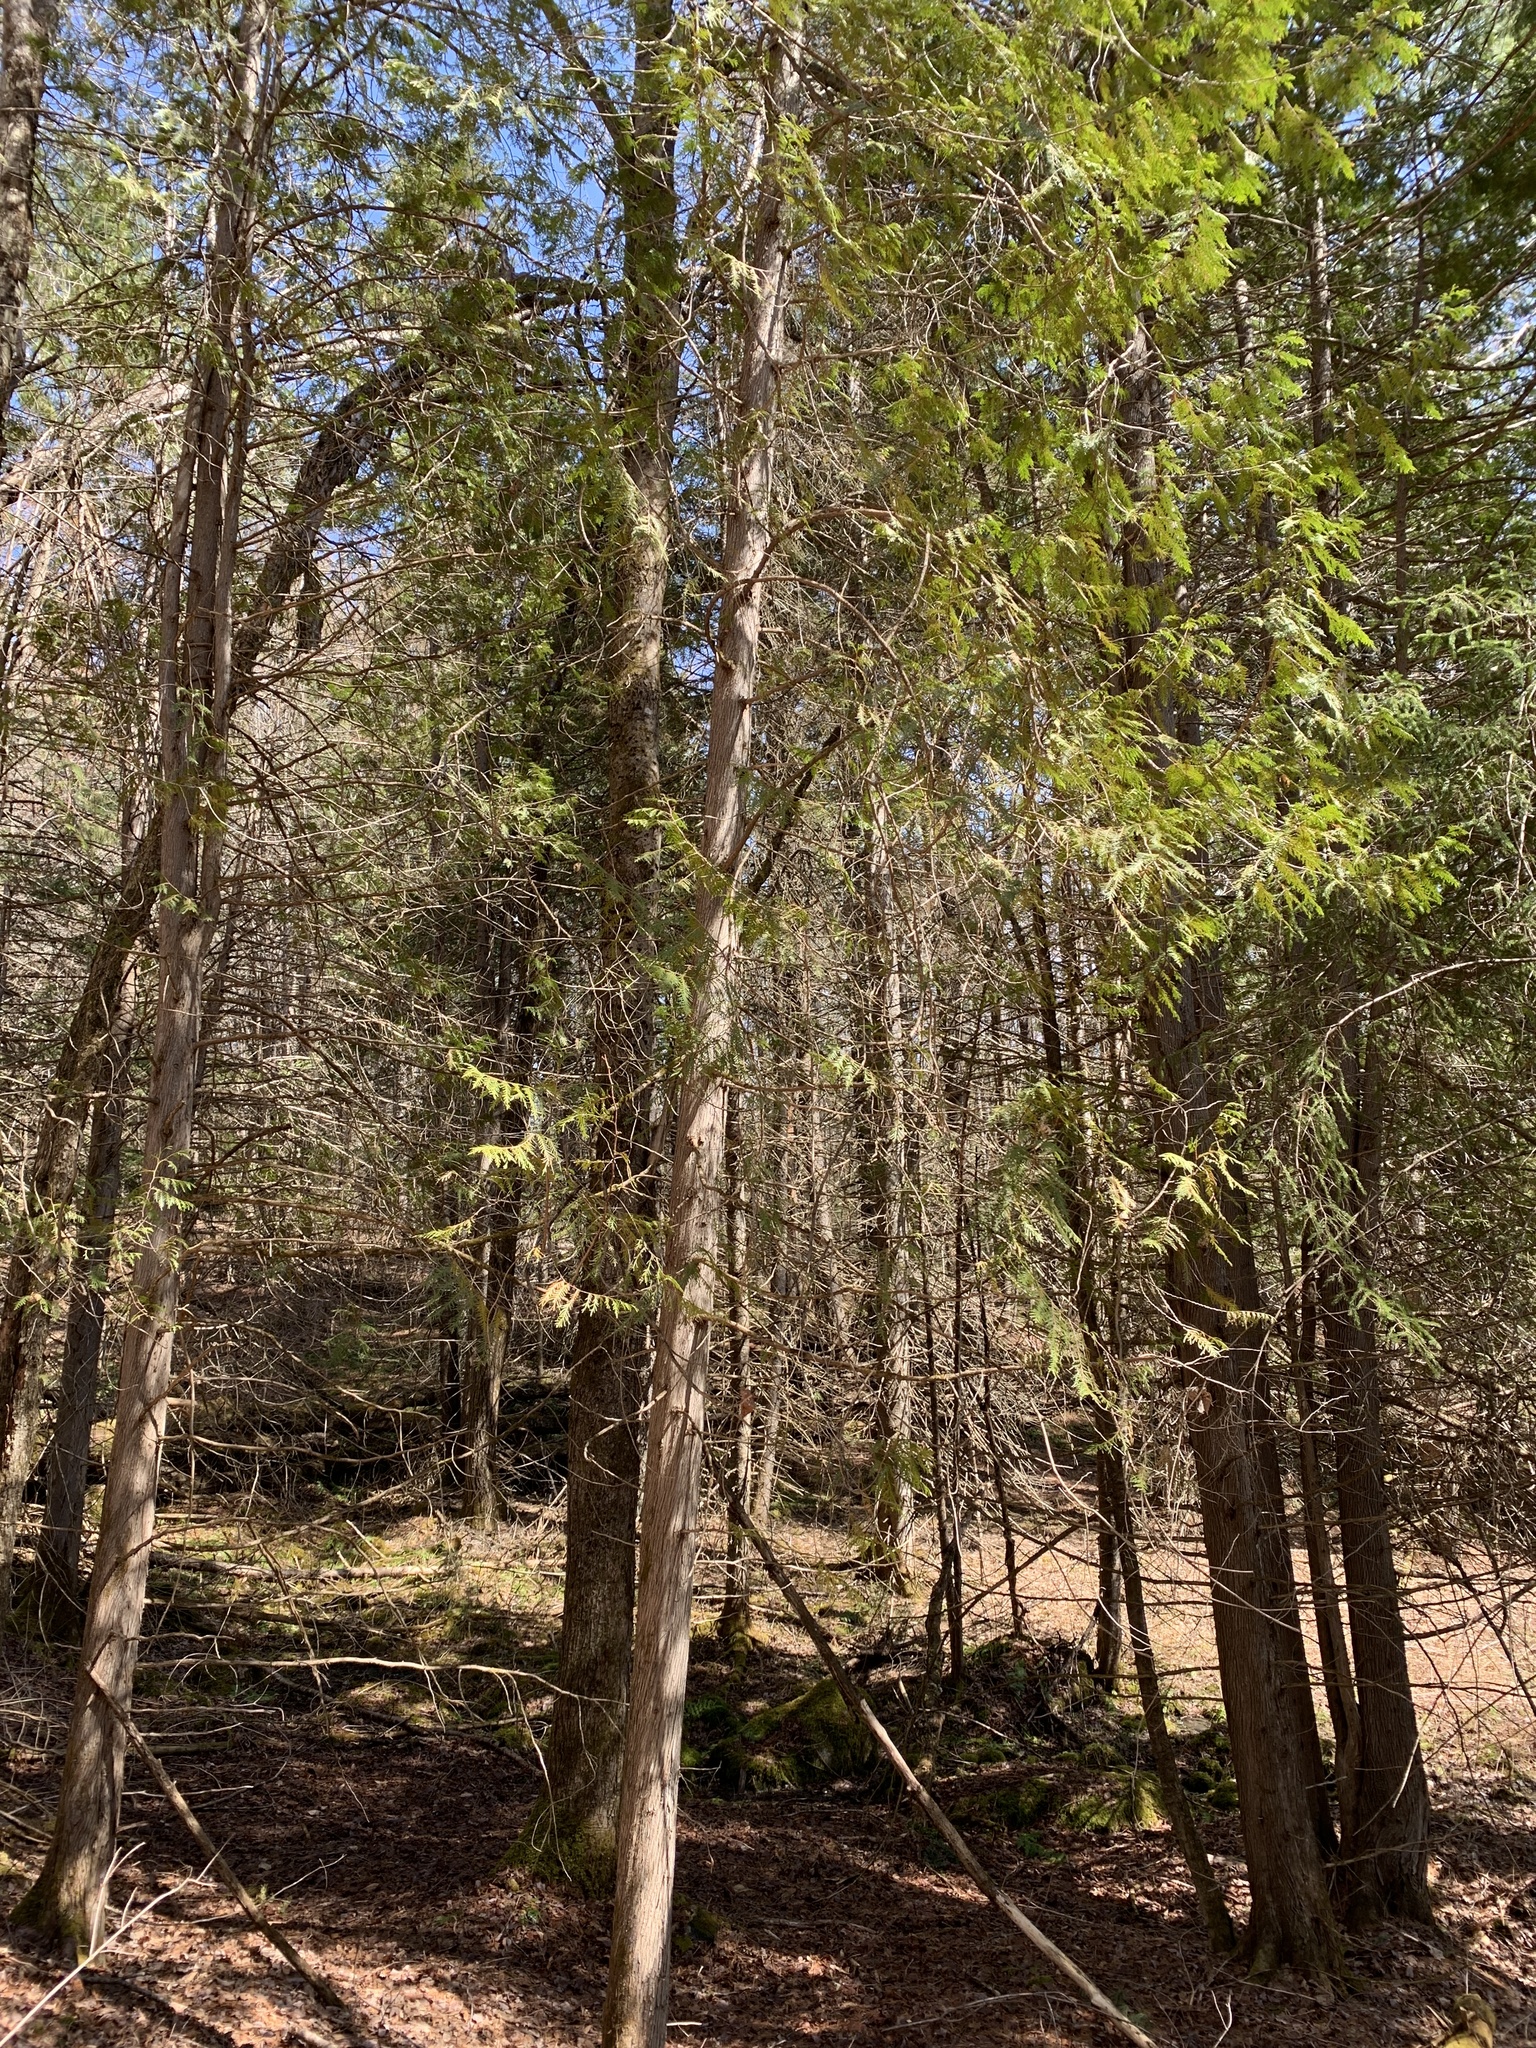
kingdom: Plantae
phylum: Tracheophyta
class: Pinopsida
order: Pinales
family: Cupressaceae
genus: Thuja
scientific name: Thuja occidentalis
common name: Northern white-cedar
